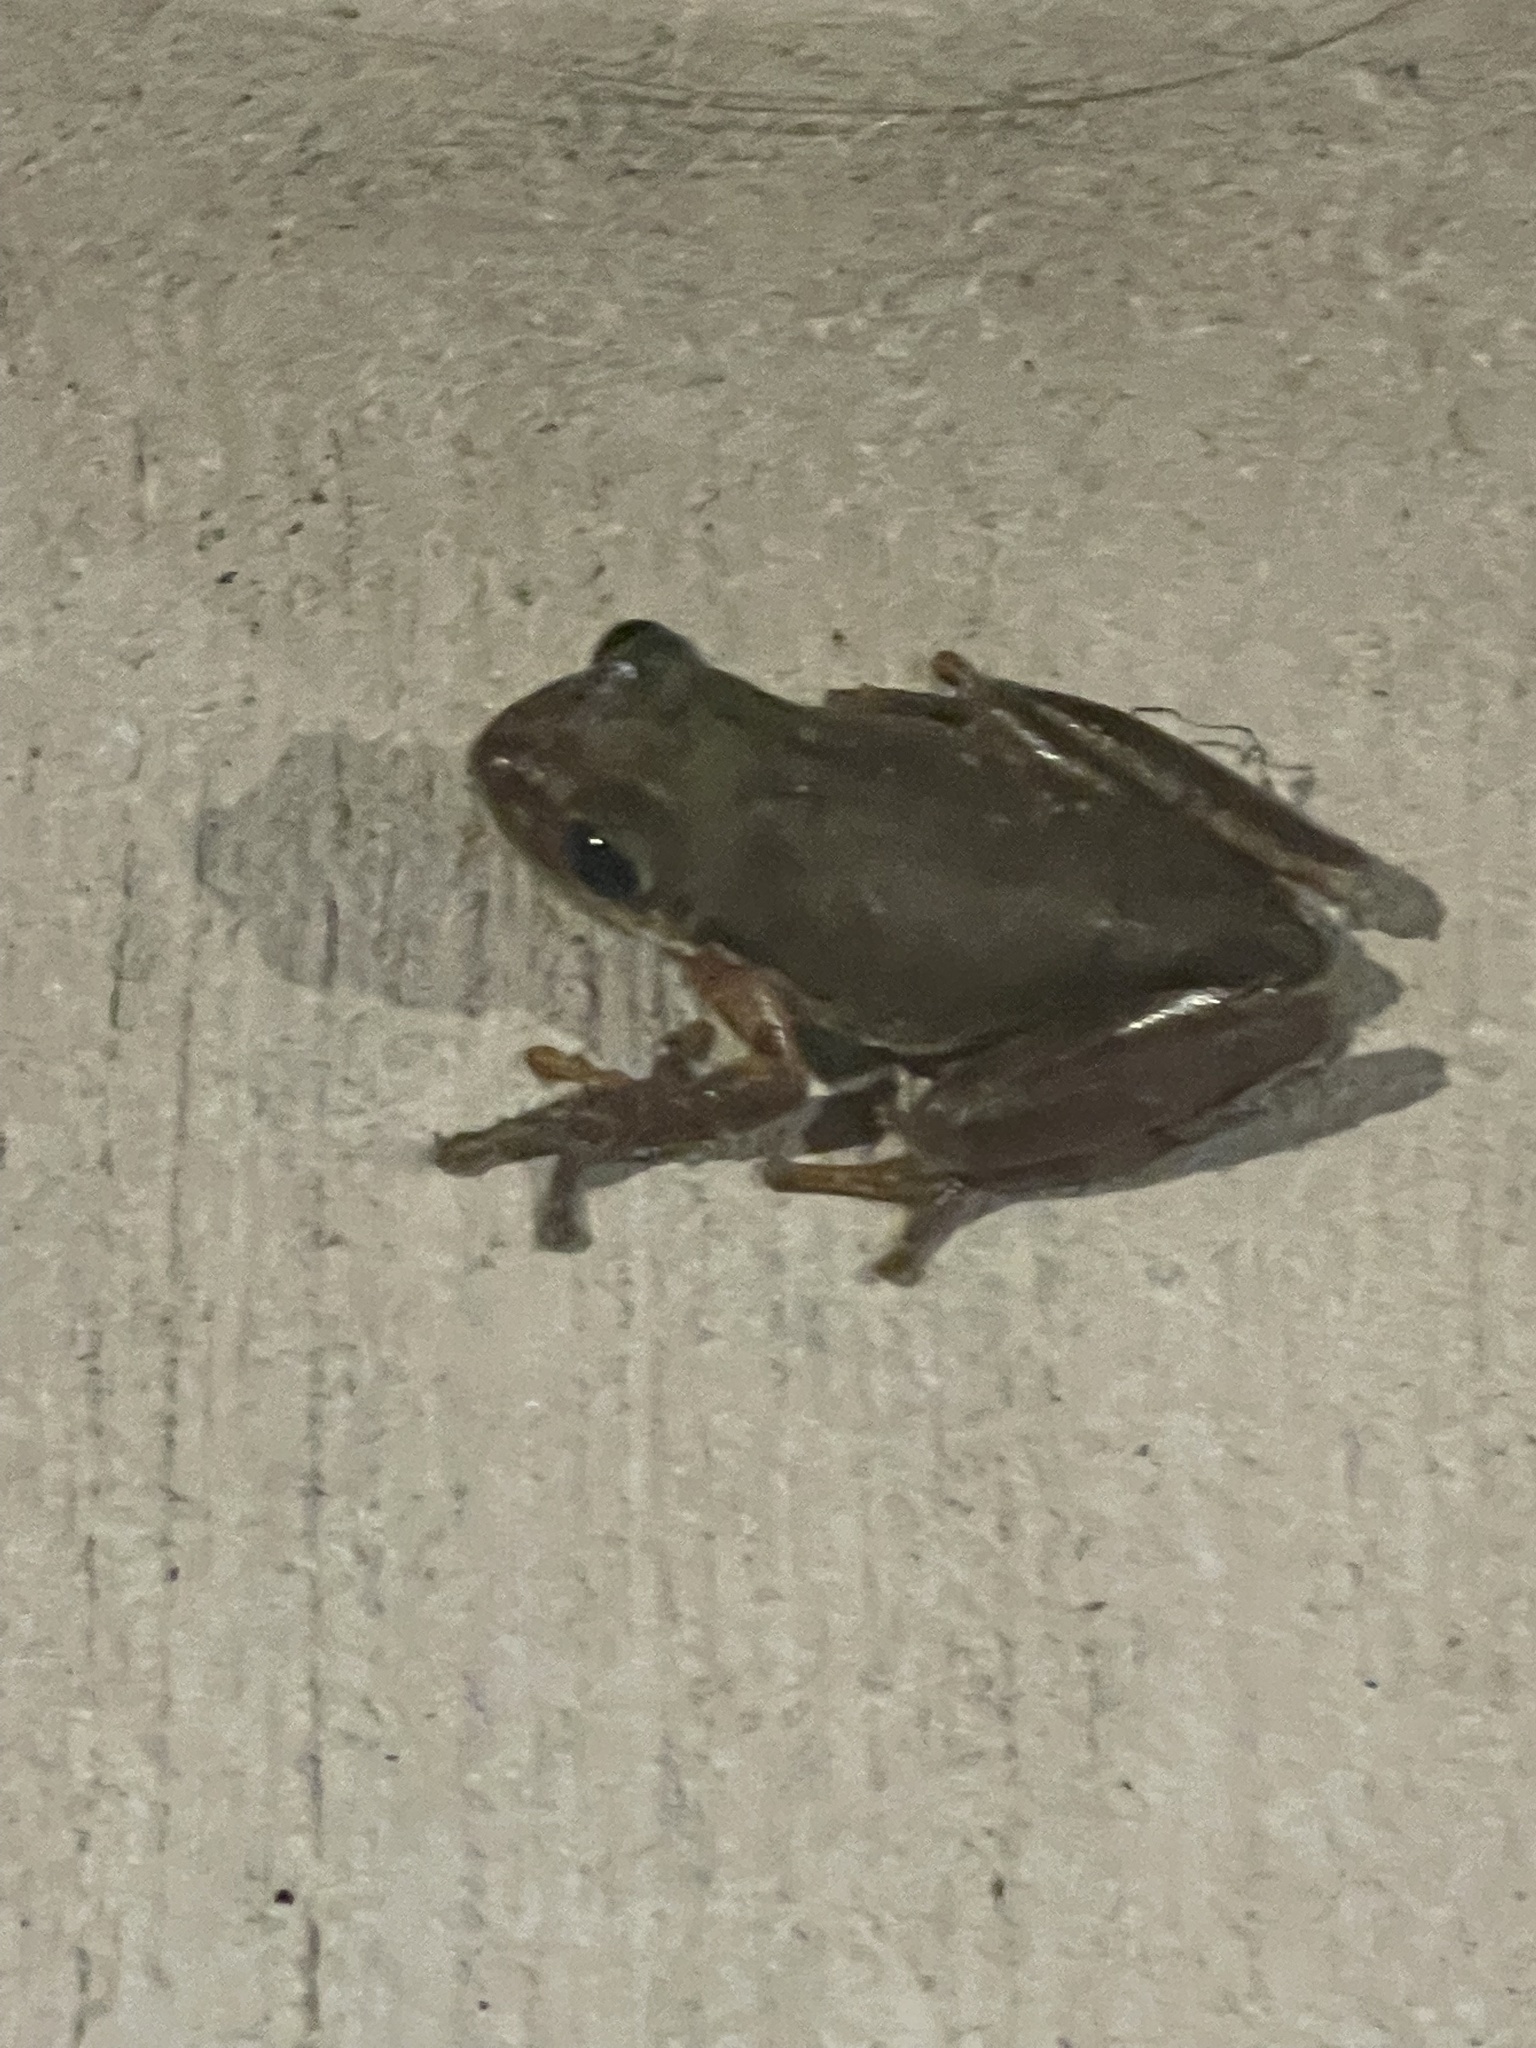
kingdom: Animalia
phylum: Chordata
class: Amphibia
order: Anura
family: Hylidae
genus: Dryophytes
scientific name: Dryophytes squirellus
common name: Squirrel treefrog
